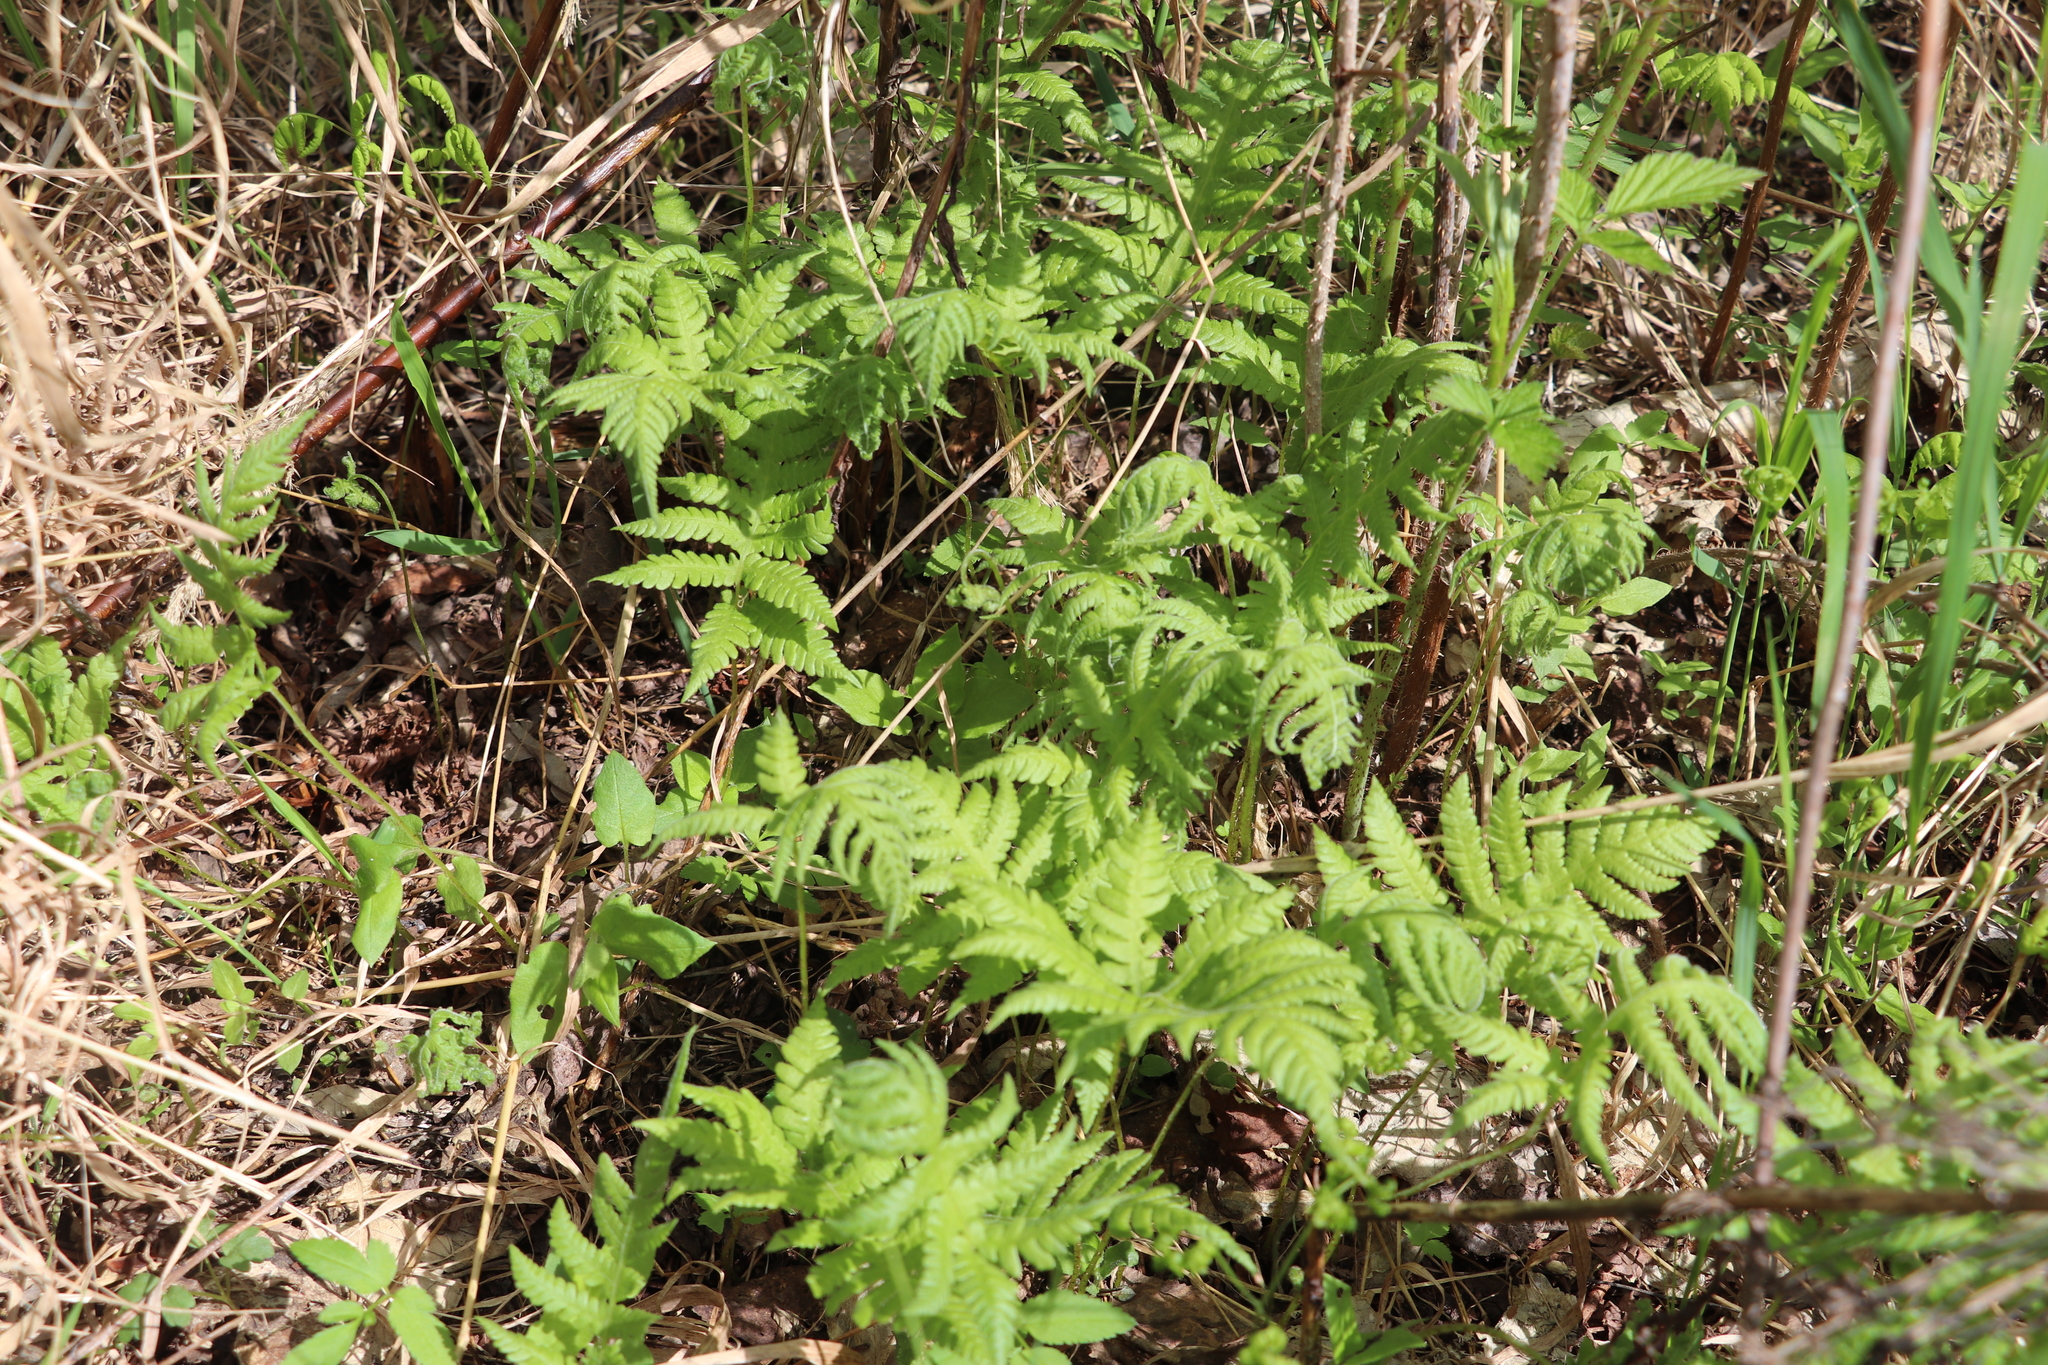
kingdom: Plantae
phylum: Tracheophyta
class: Polypodiopsida
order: Polypodiales
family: Thelypteridaceae
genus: Phegopteris
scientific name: Phegopteris connectilis
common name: Beech fern
